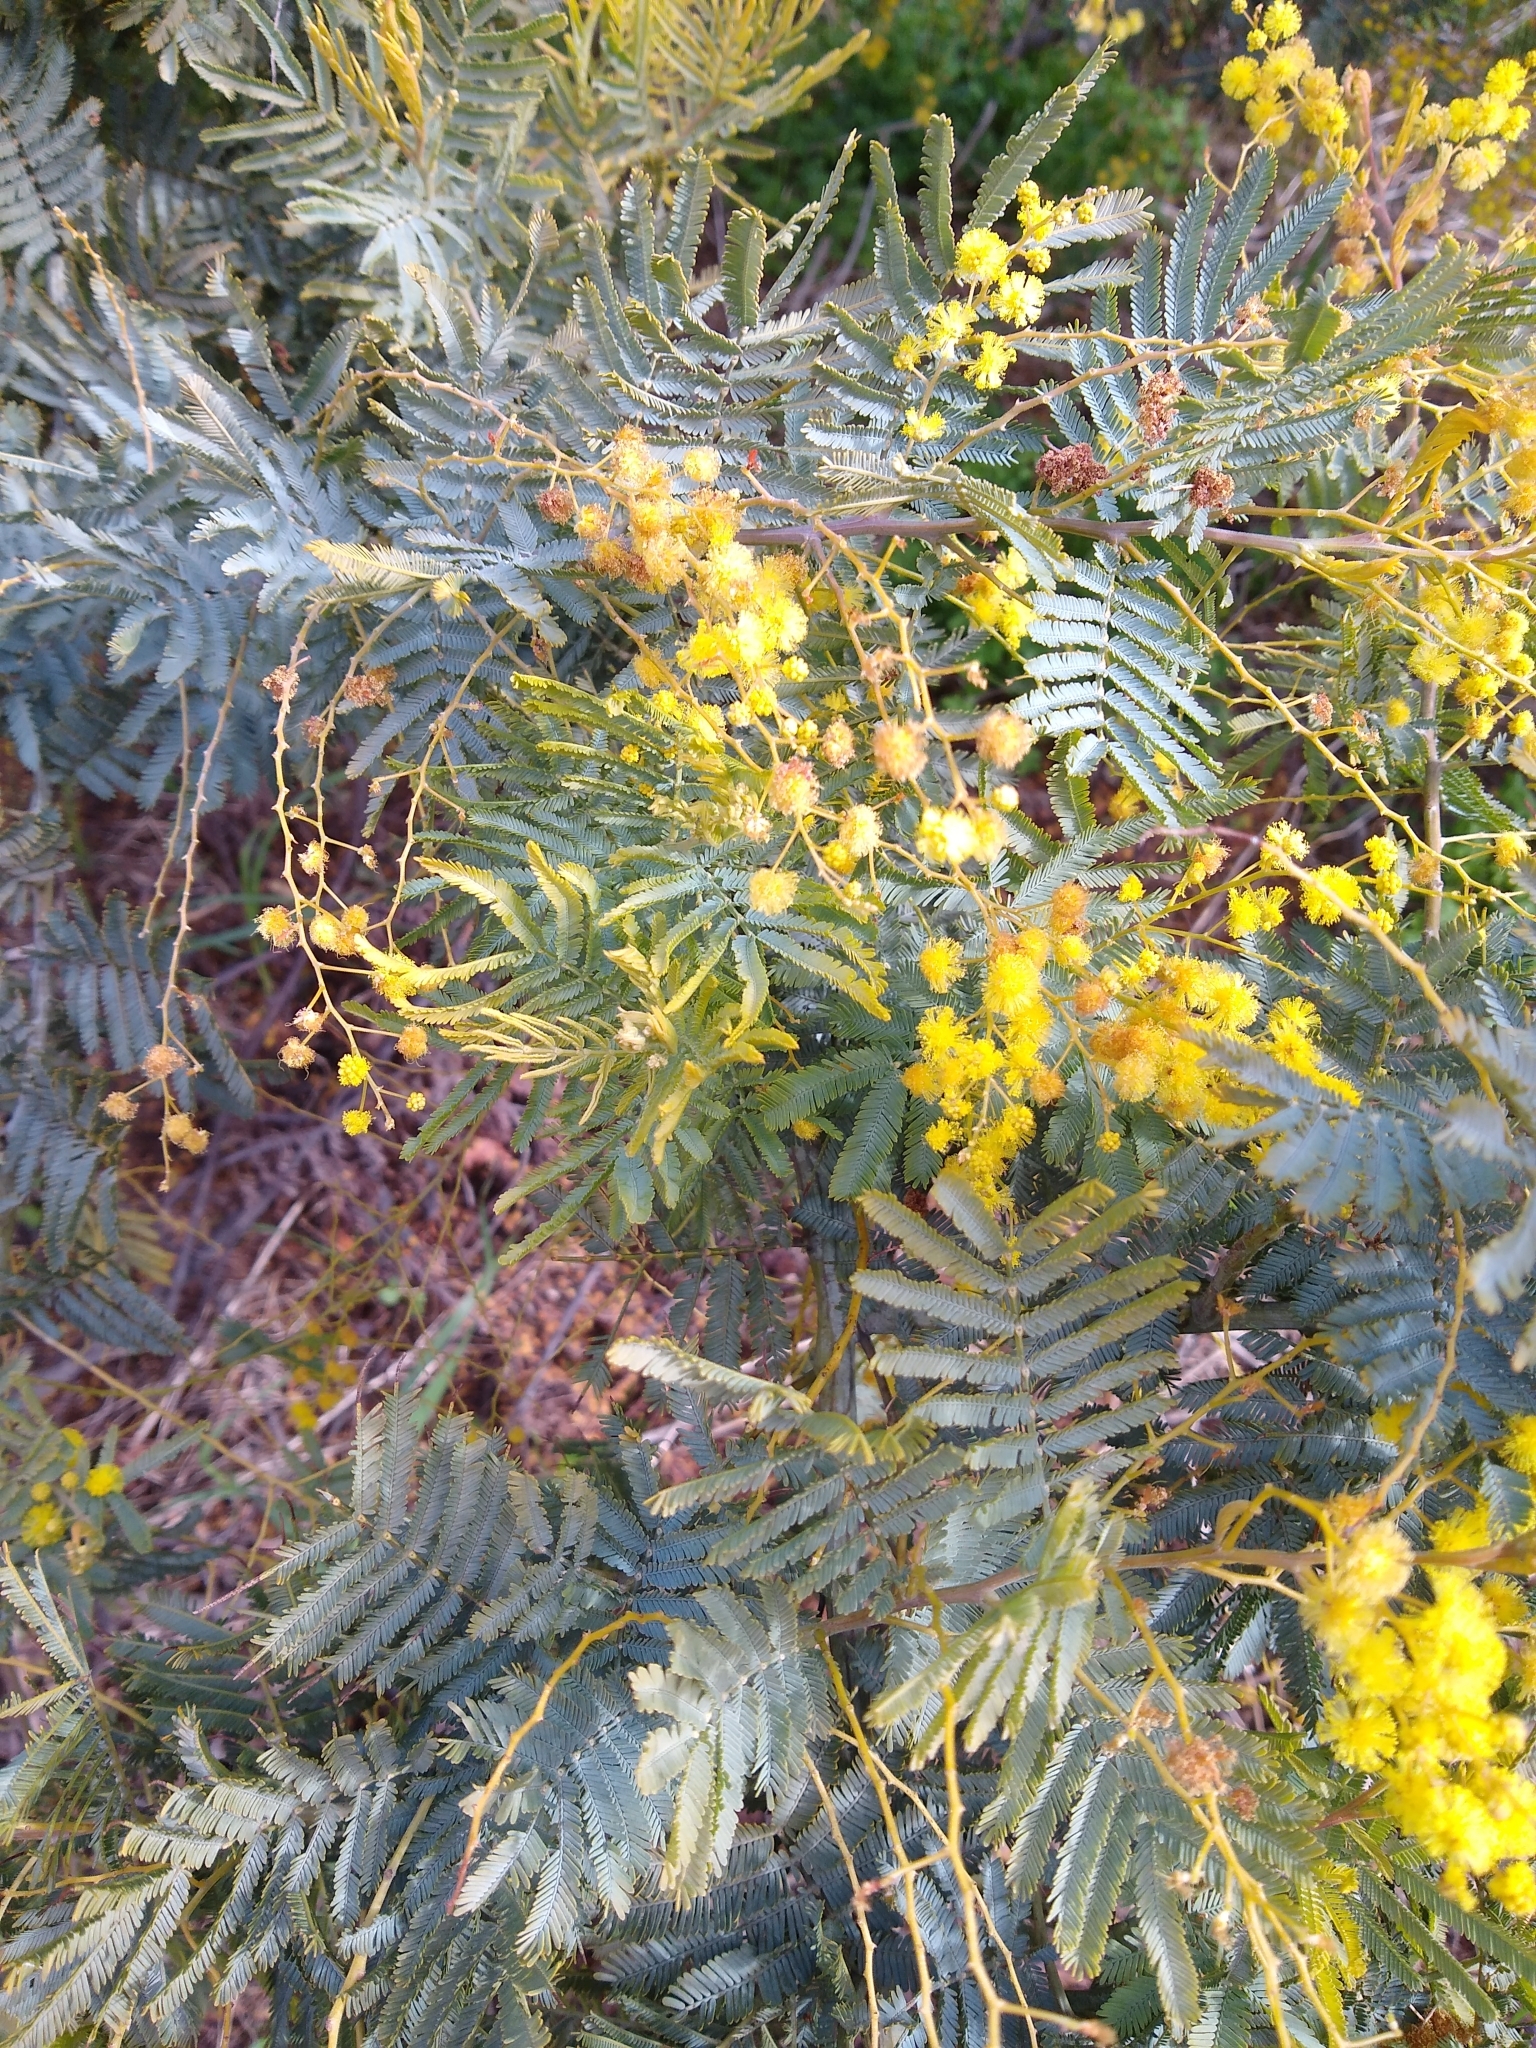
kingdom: Plantae
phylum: Tracheophyta
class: Magnoliopsida
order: Fabales
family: Fabaceae
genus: Acacia
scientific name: Acacia dealbata
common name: Silver wattle
